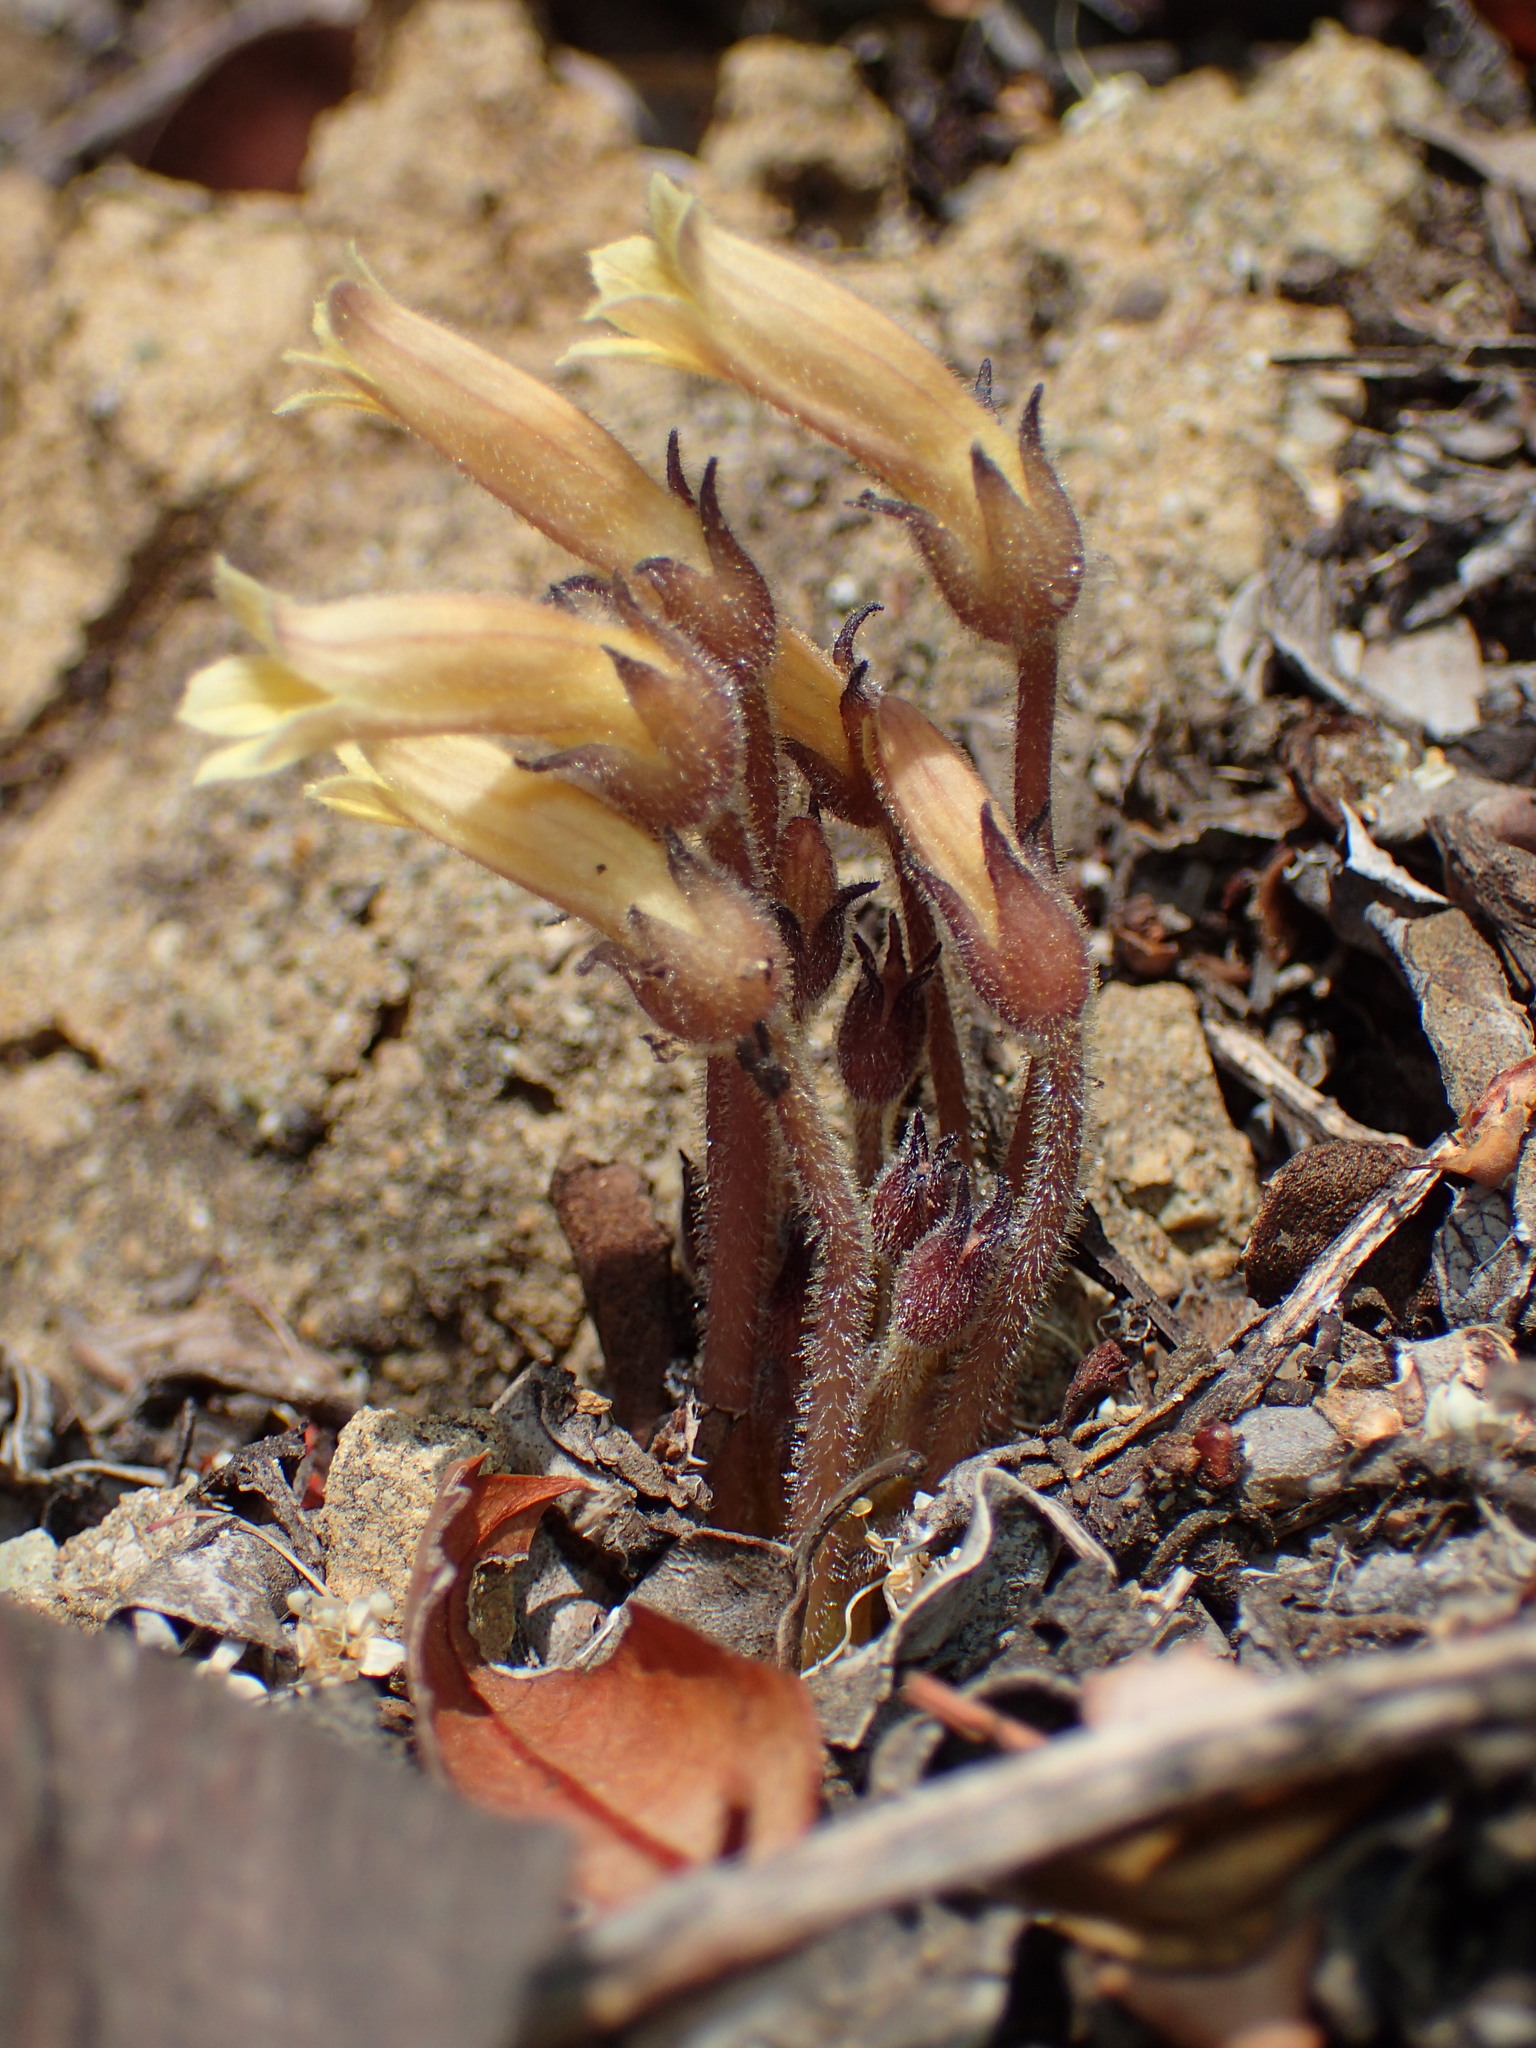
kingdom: Plantae
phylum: Tracheophyta
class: Magnoliopsida
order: Lamiales
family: Orobanchaceae
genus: Aphyllon
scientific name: Aphyllon franciscanum
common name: San francisco broomrape
